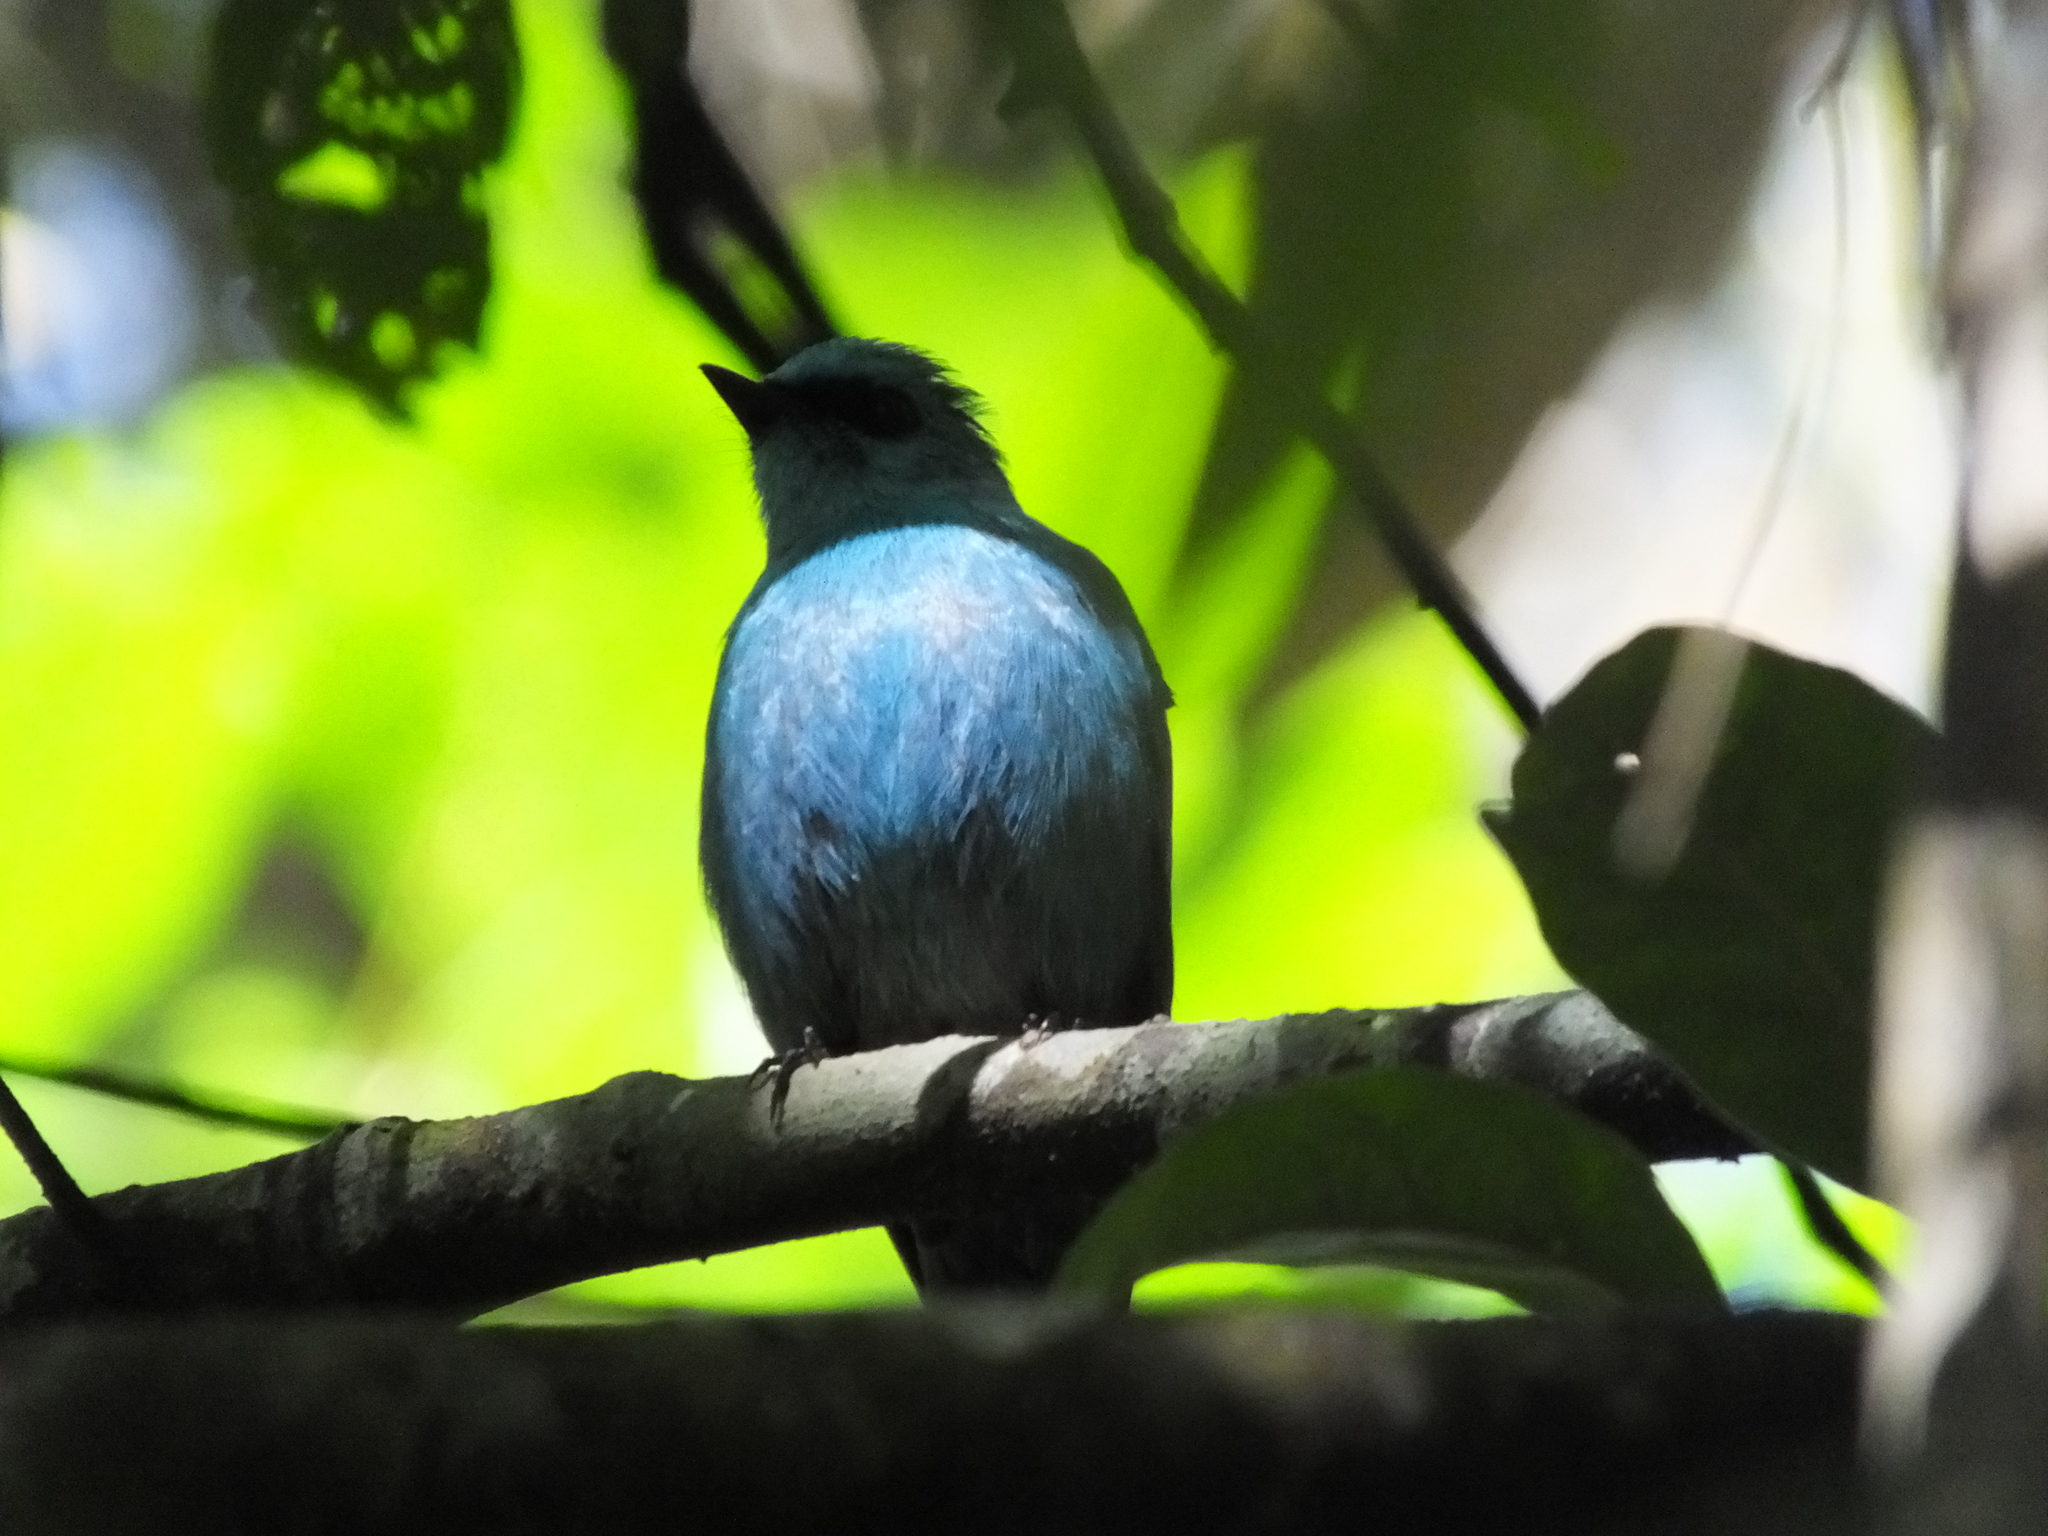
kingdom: Animalia
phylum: Chordata
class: Aves
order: Passeriformes
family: Muscicapidae
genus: Eumyias
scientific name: Eumyias thalassinus
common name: Verditer flycatcher
